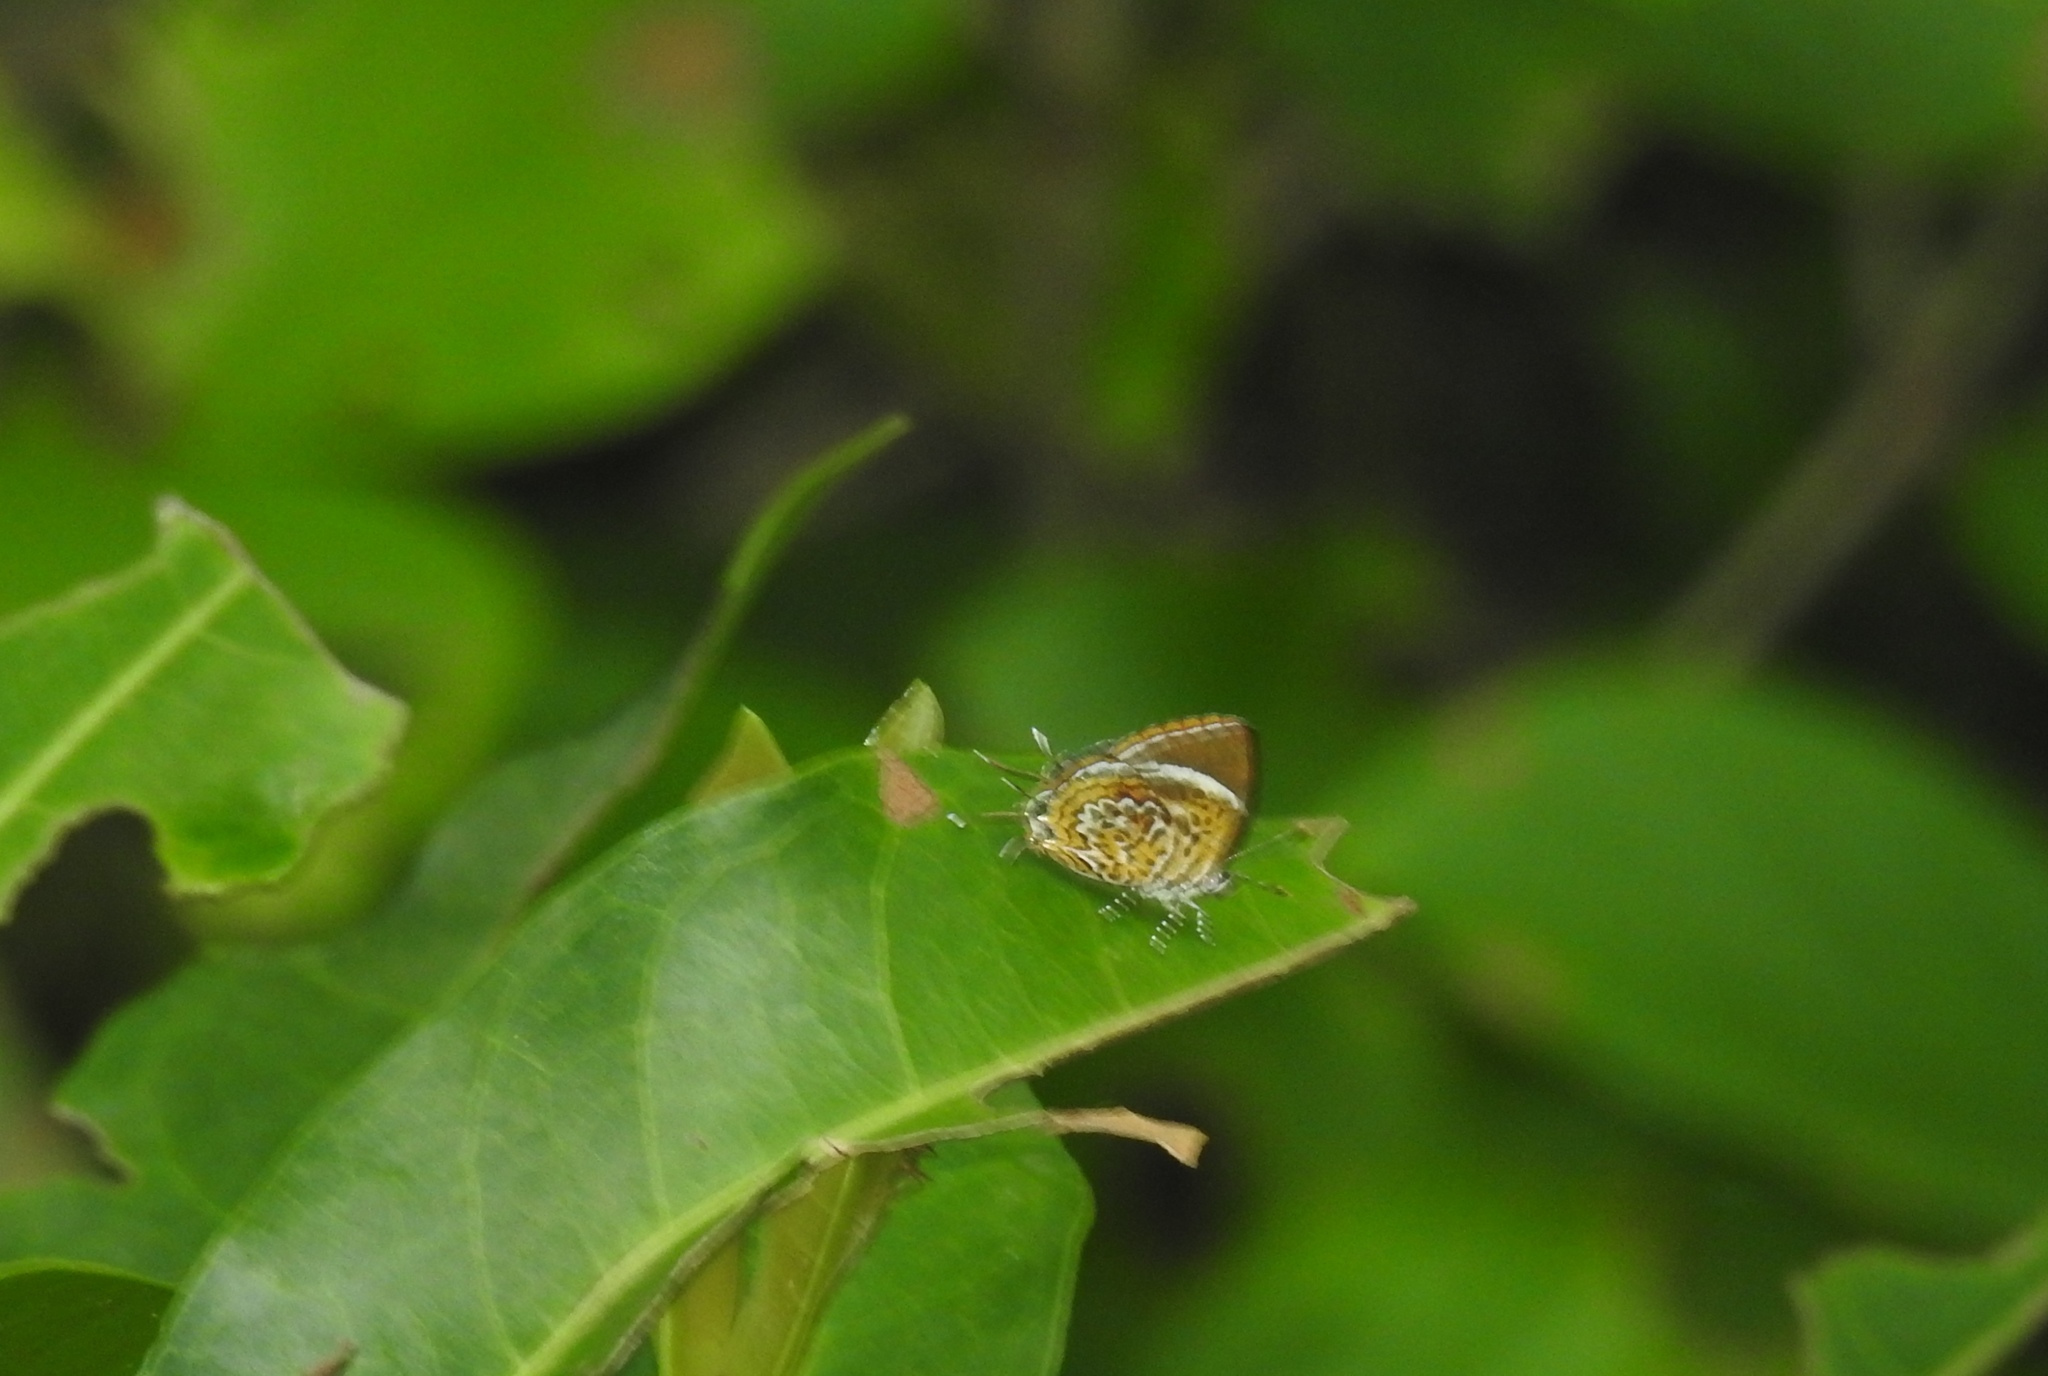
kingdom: Animalia
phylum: Arthropoda
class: Insecta
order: Lepidoptera
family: Lycaenidae
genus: Rathinda
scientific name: Rathinda amor
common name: Monkey puzzle
